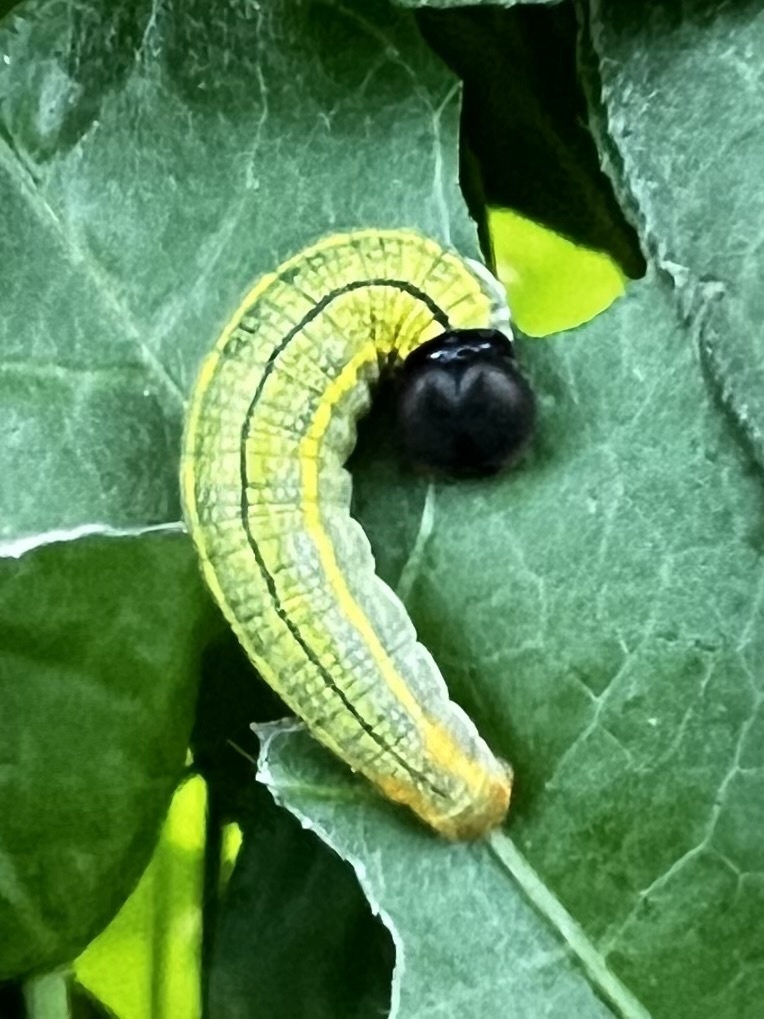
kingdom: Animalia
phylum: Arthropoda
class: Insecta
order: Lepidoptera
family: Hesperiidae
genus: Urbanus
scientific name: Urbanus proteus
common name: Long-tailed skipper
